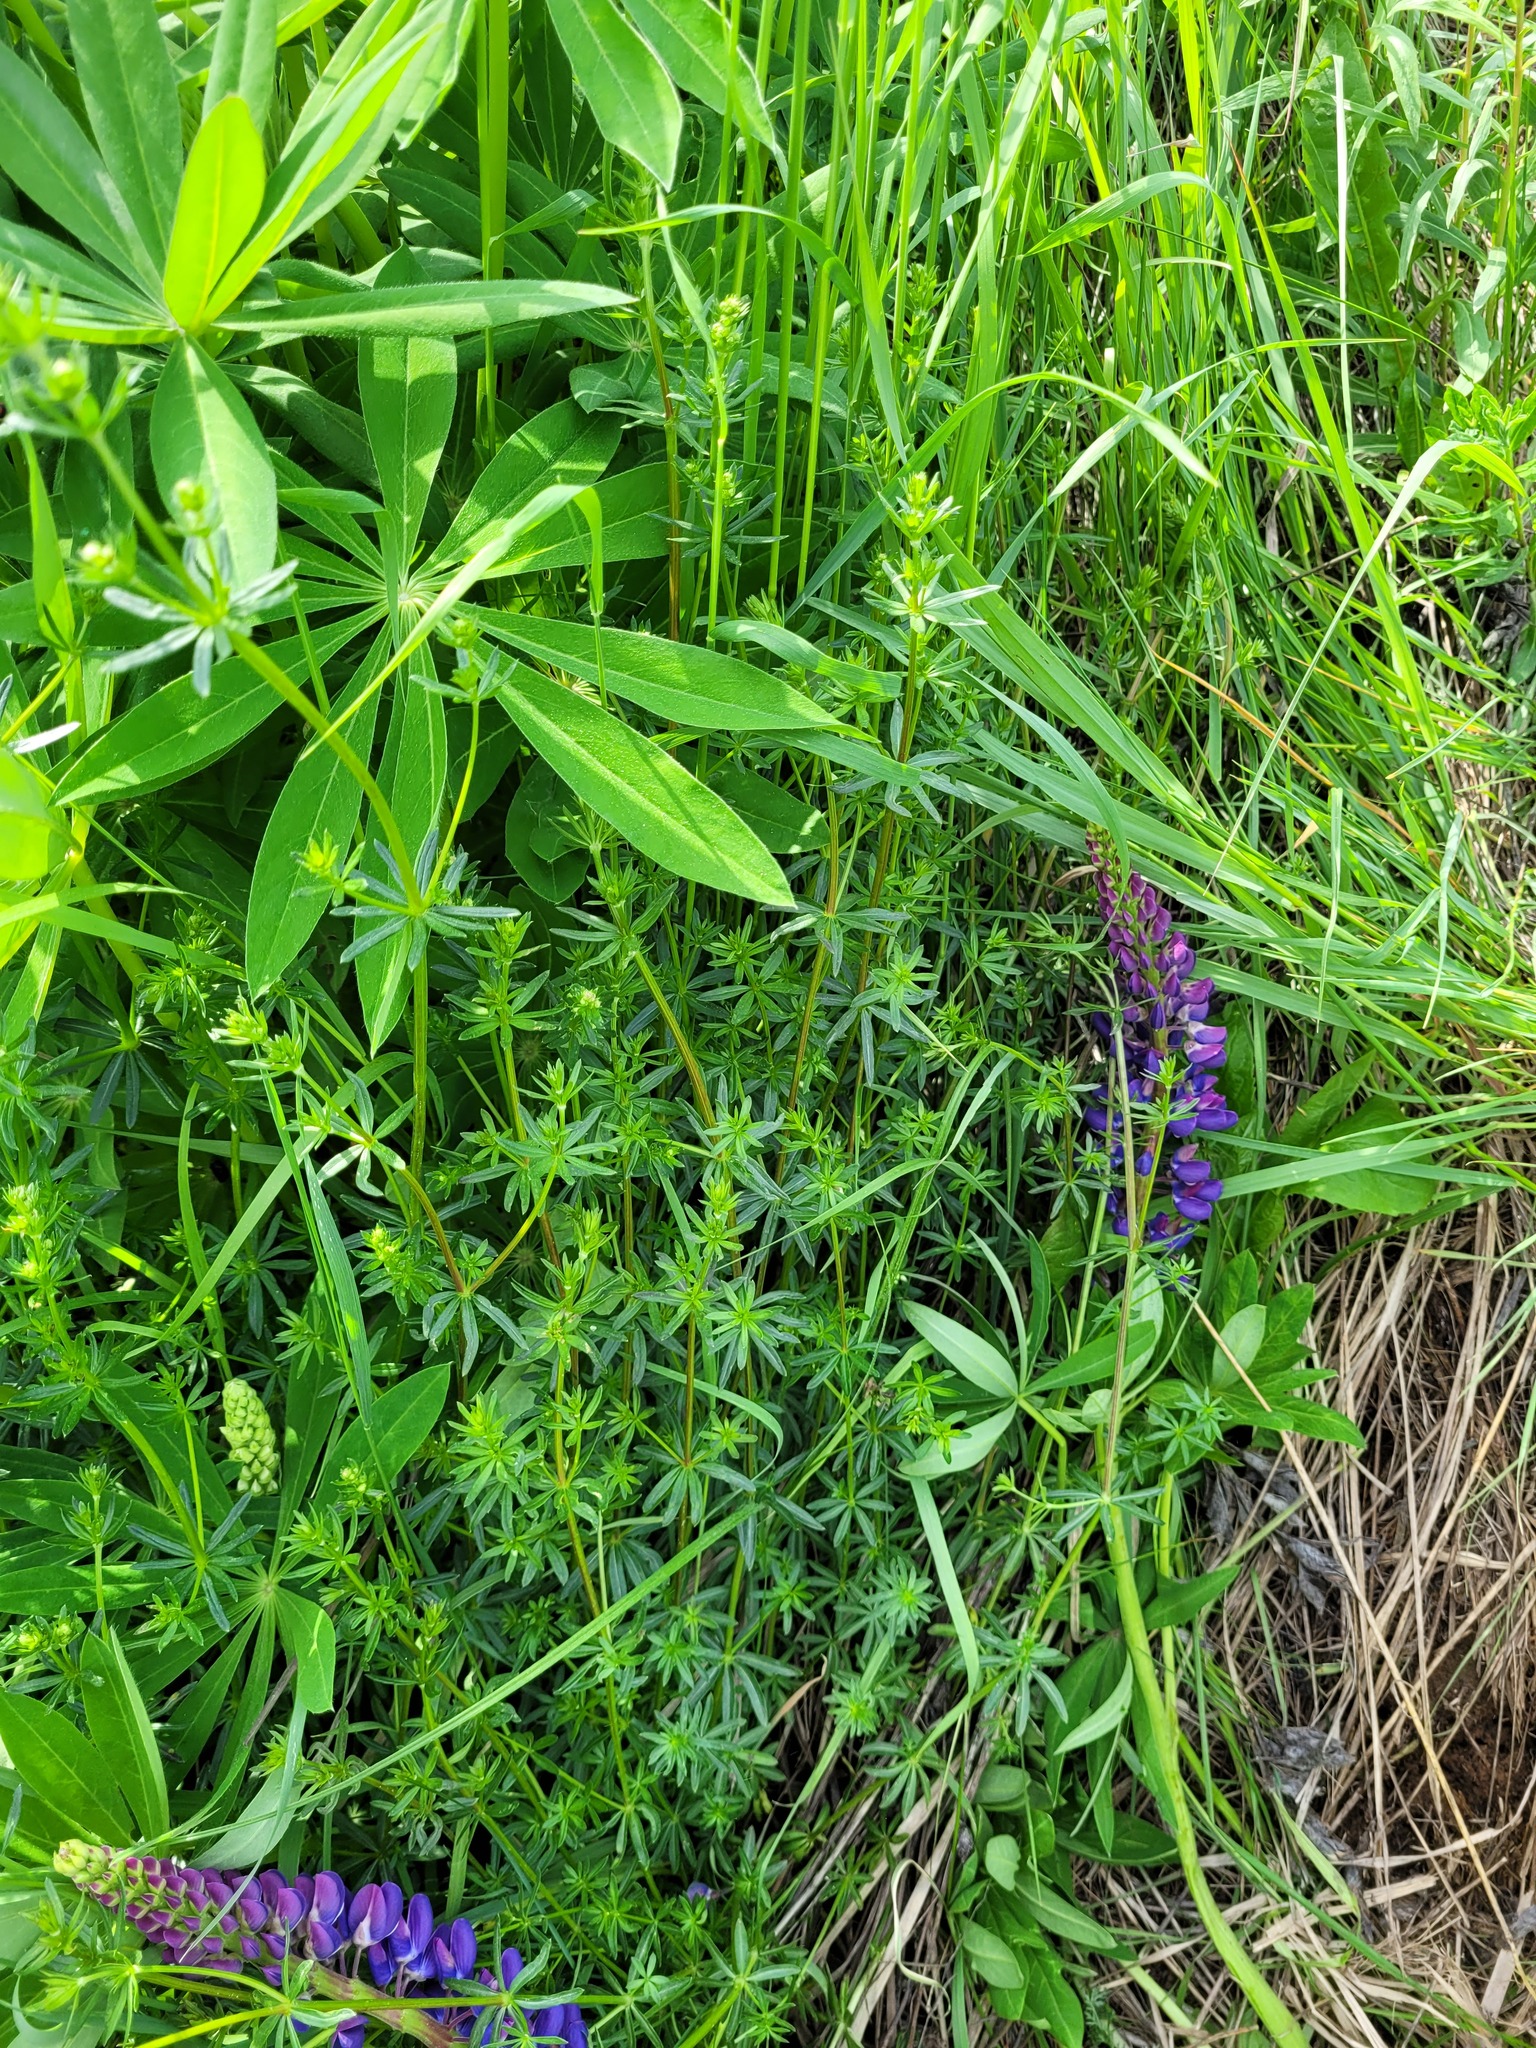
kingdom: Plantae
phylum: Tracheophyta
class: Magnoliopsida
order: Gentianales
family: Rubiaceae
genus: Galium
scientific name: Galium mollugo
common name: Hedge bedstraw
